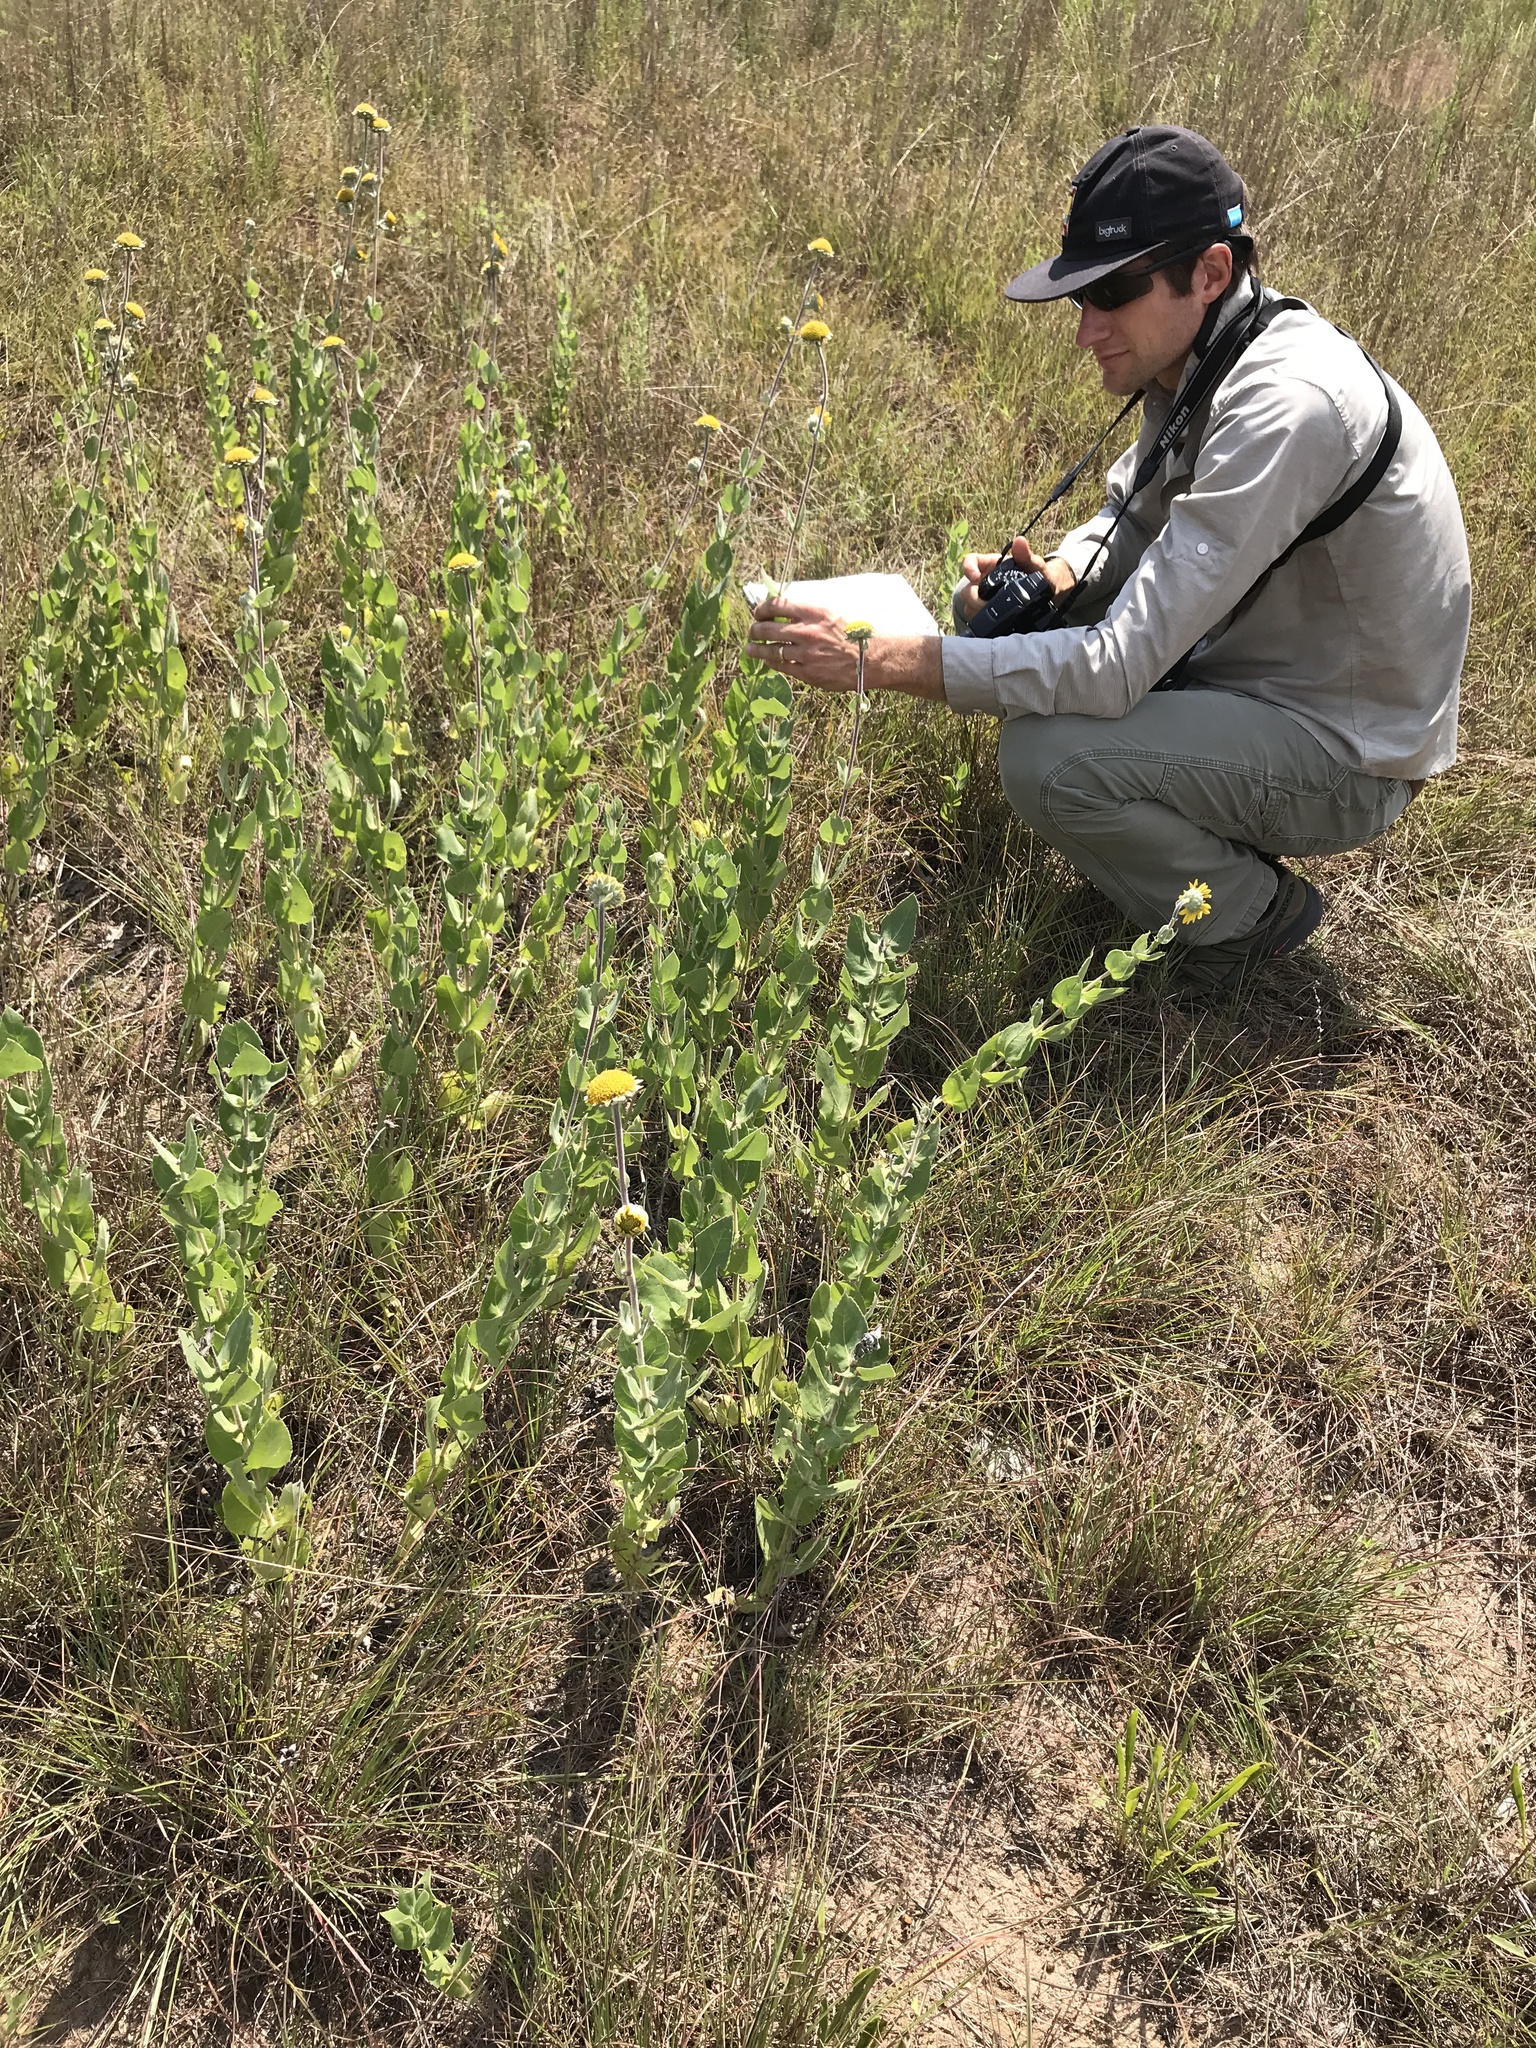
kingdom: Plantae
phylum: Tracheophyta
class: Magnoliopsida
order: Asterales
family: Asteraceae
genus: Helianthus
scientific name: Helianthus mollis
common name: Ashy sunflower
